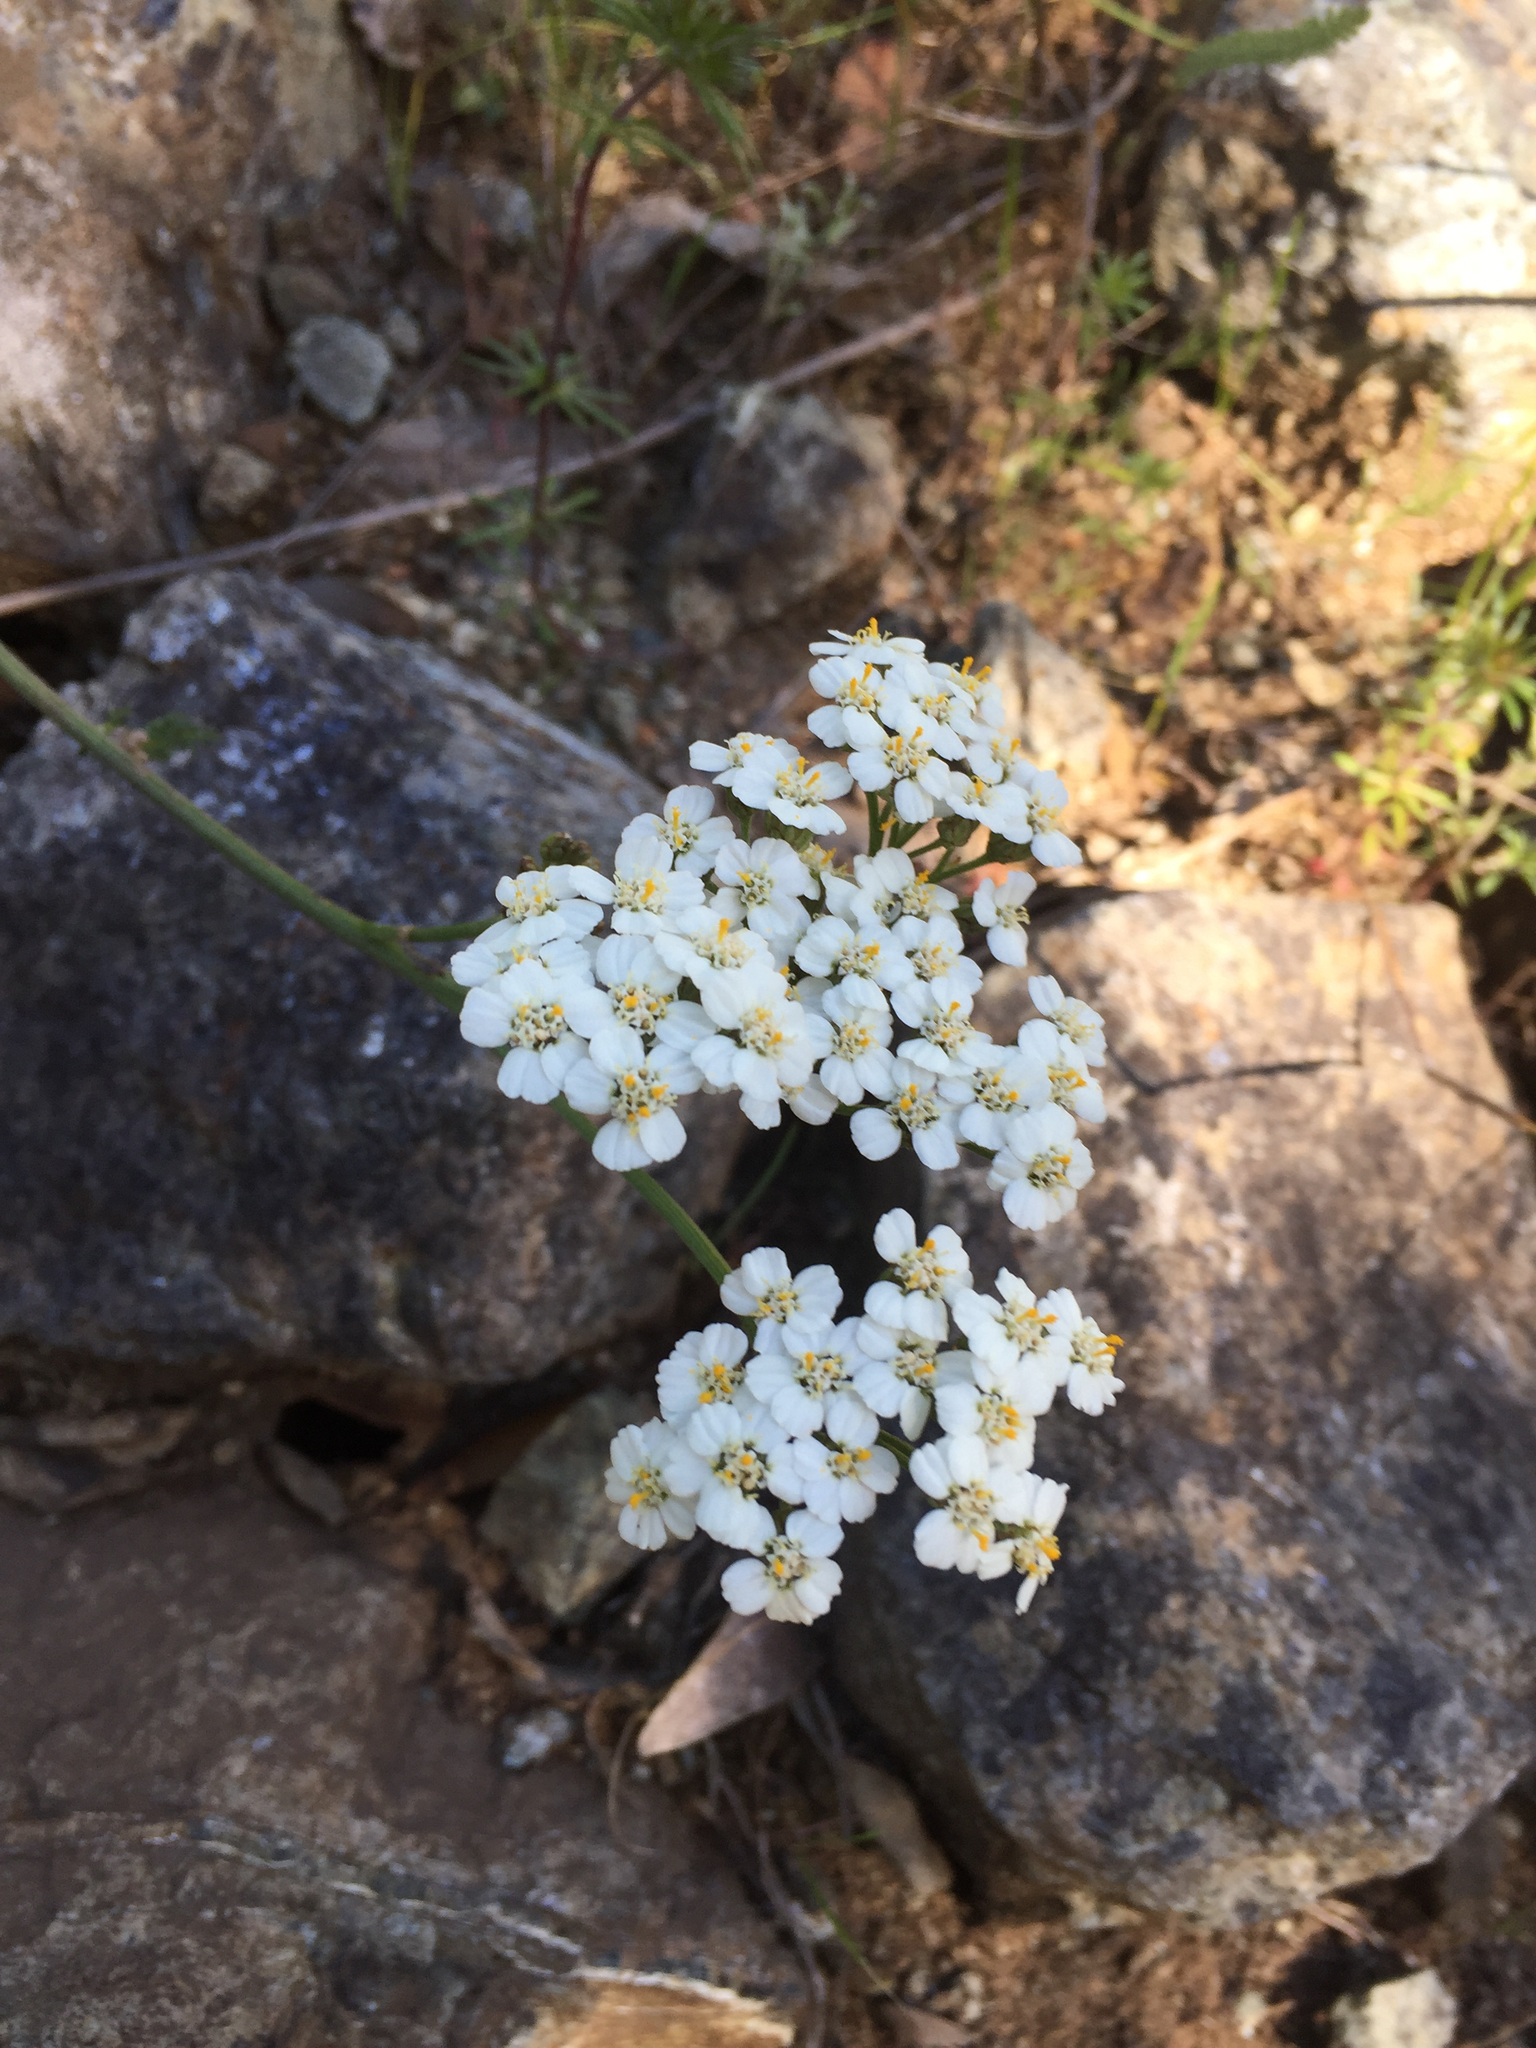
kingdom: Plantae
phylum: Tracheophyta
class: Magnoliopsida
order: Asterales
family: Asteraceae
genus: Achillea
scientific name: Achillea millefolium
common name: Yarrow
